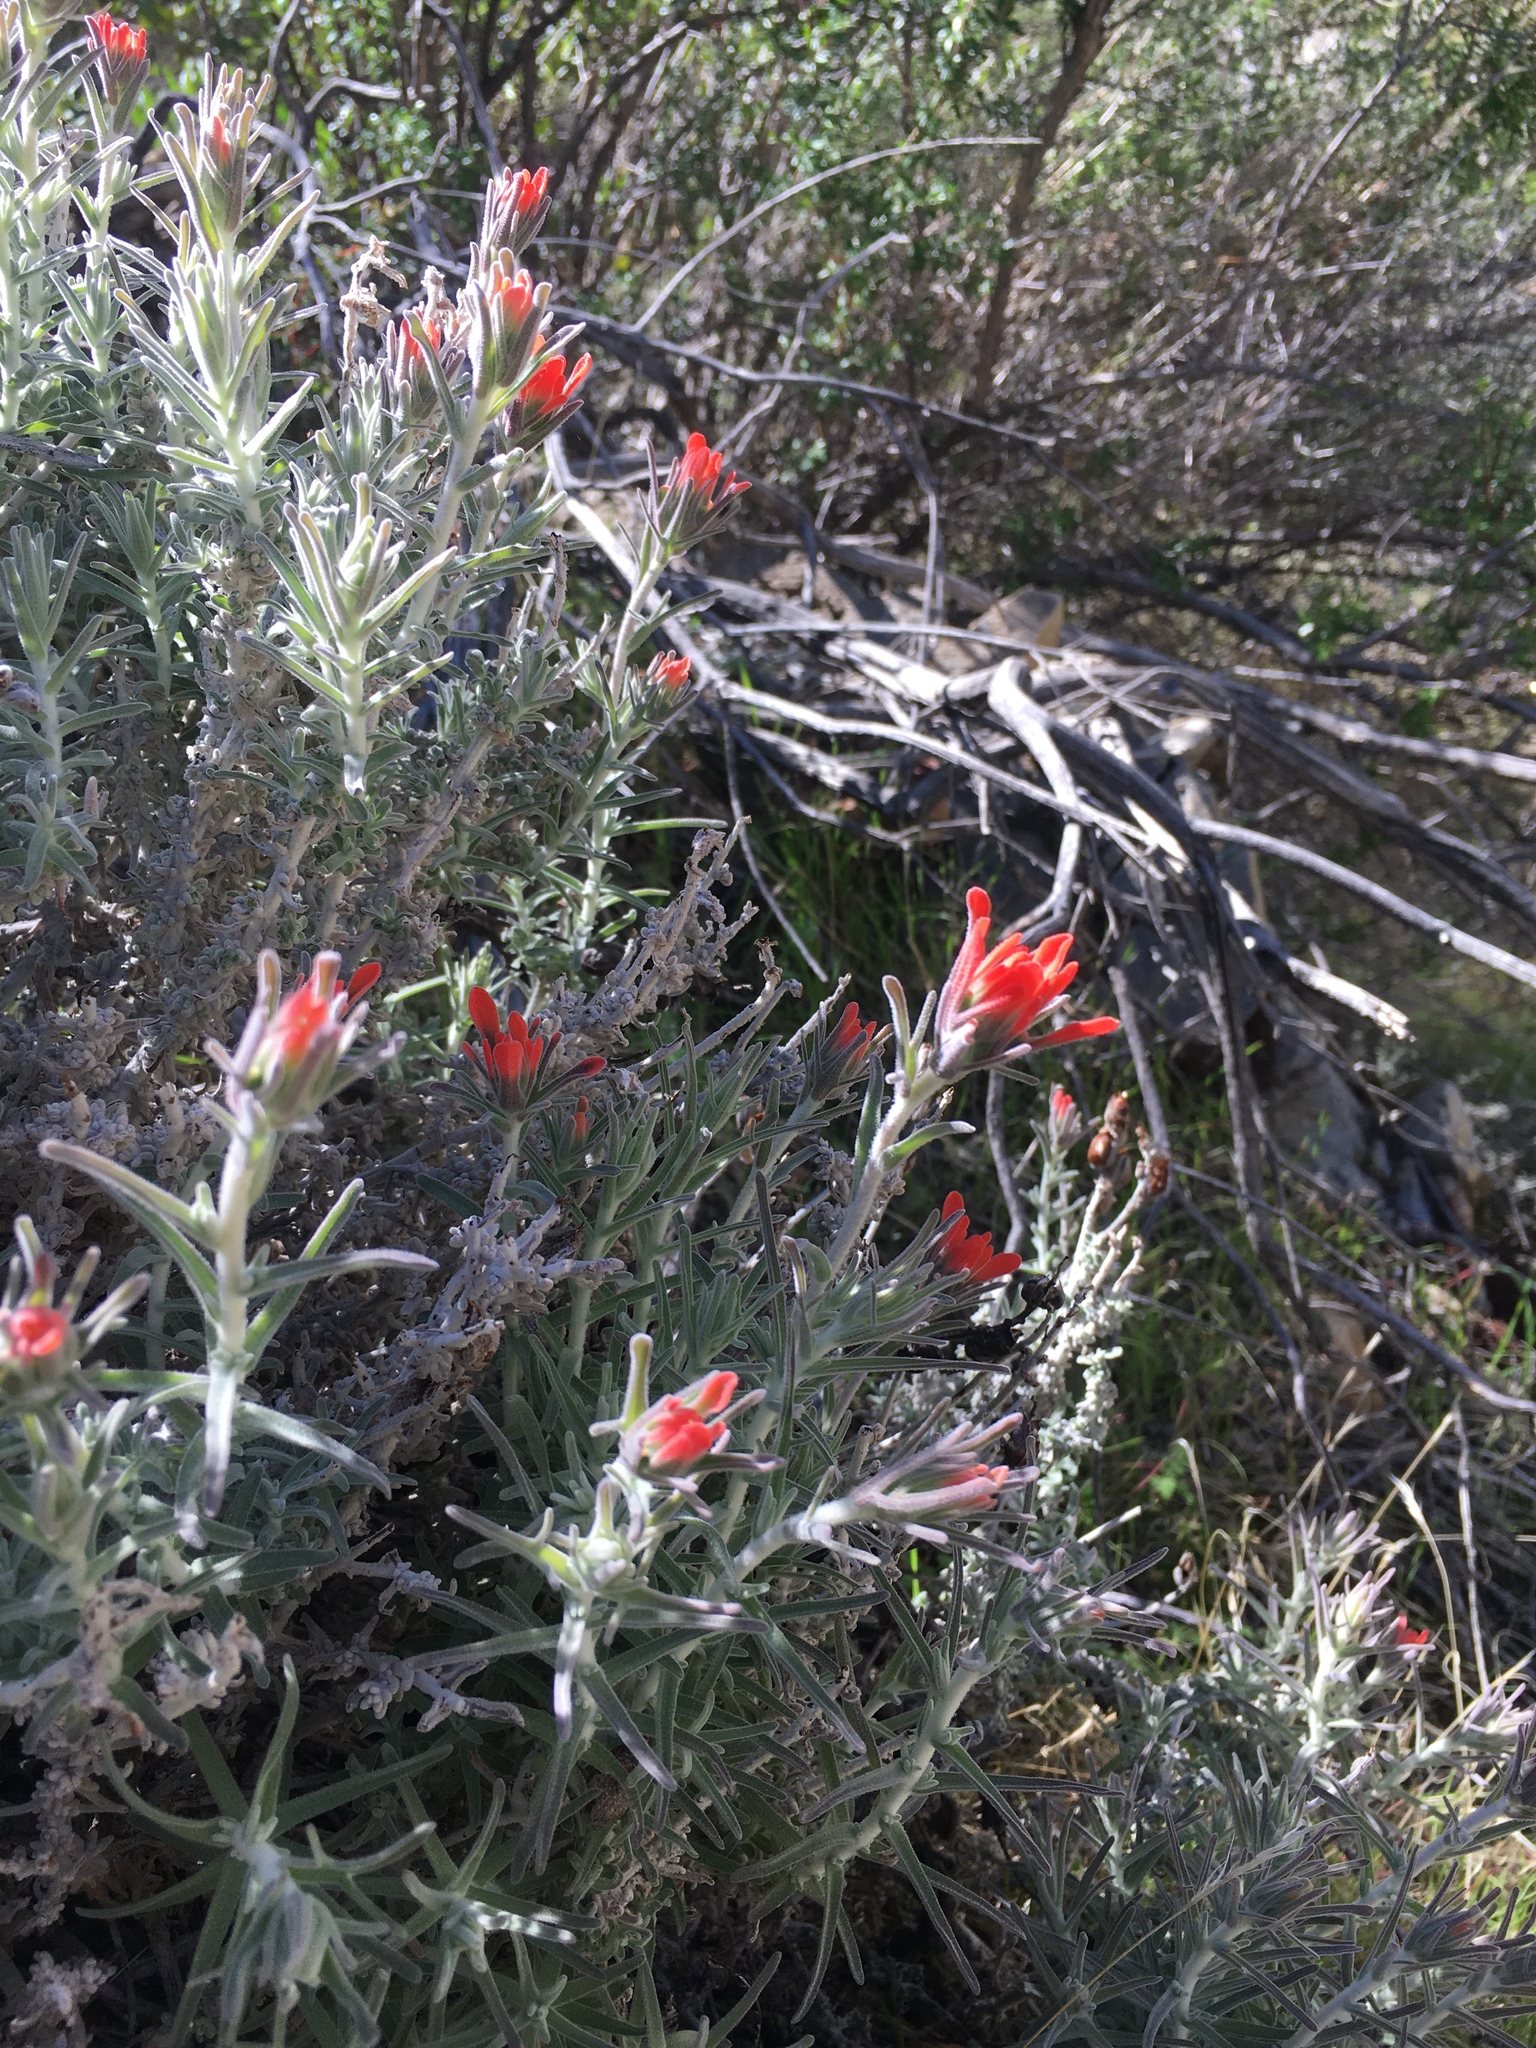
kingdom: Plantae
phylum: Tracheophyta
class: Magnoliopsida
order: Lamiales
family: Orobanchaceae
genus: Castilleja
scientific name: Castilleja foliolosa
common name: Woolly indian paintbrush
